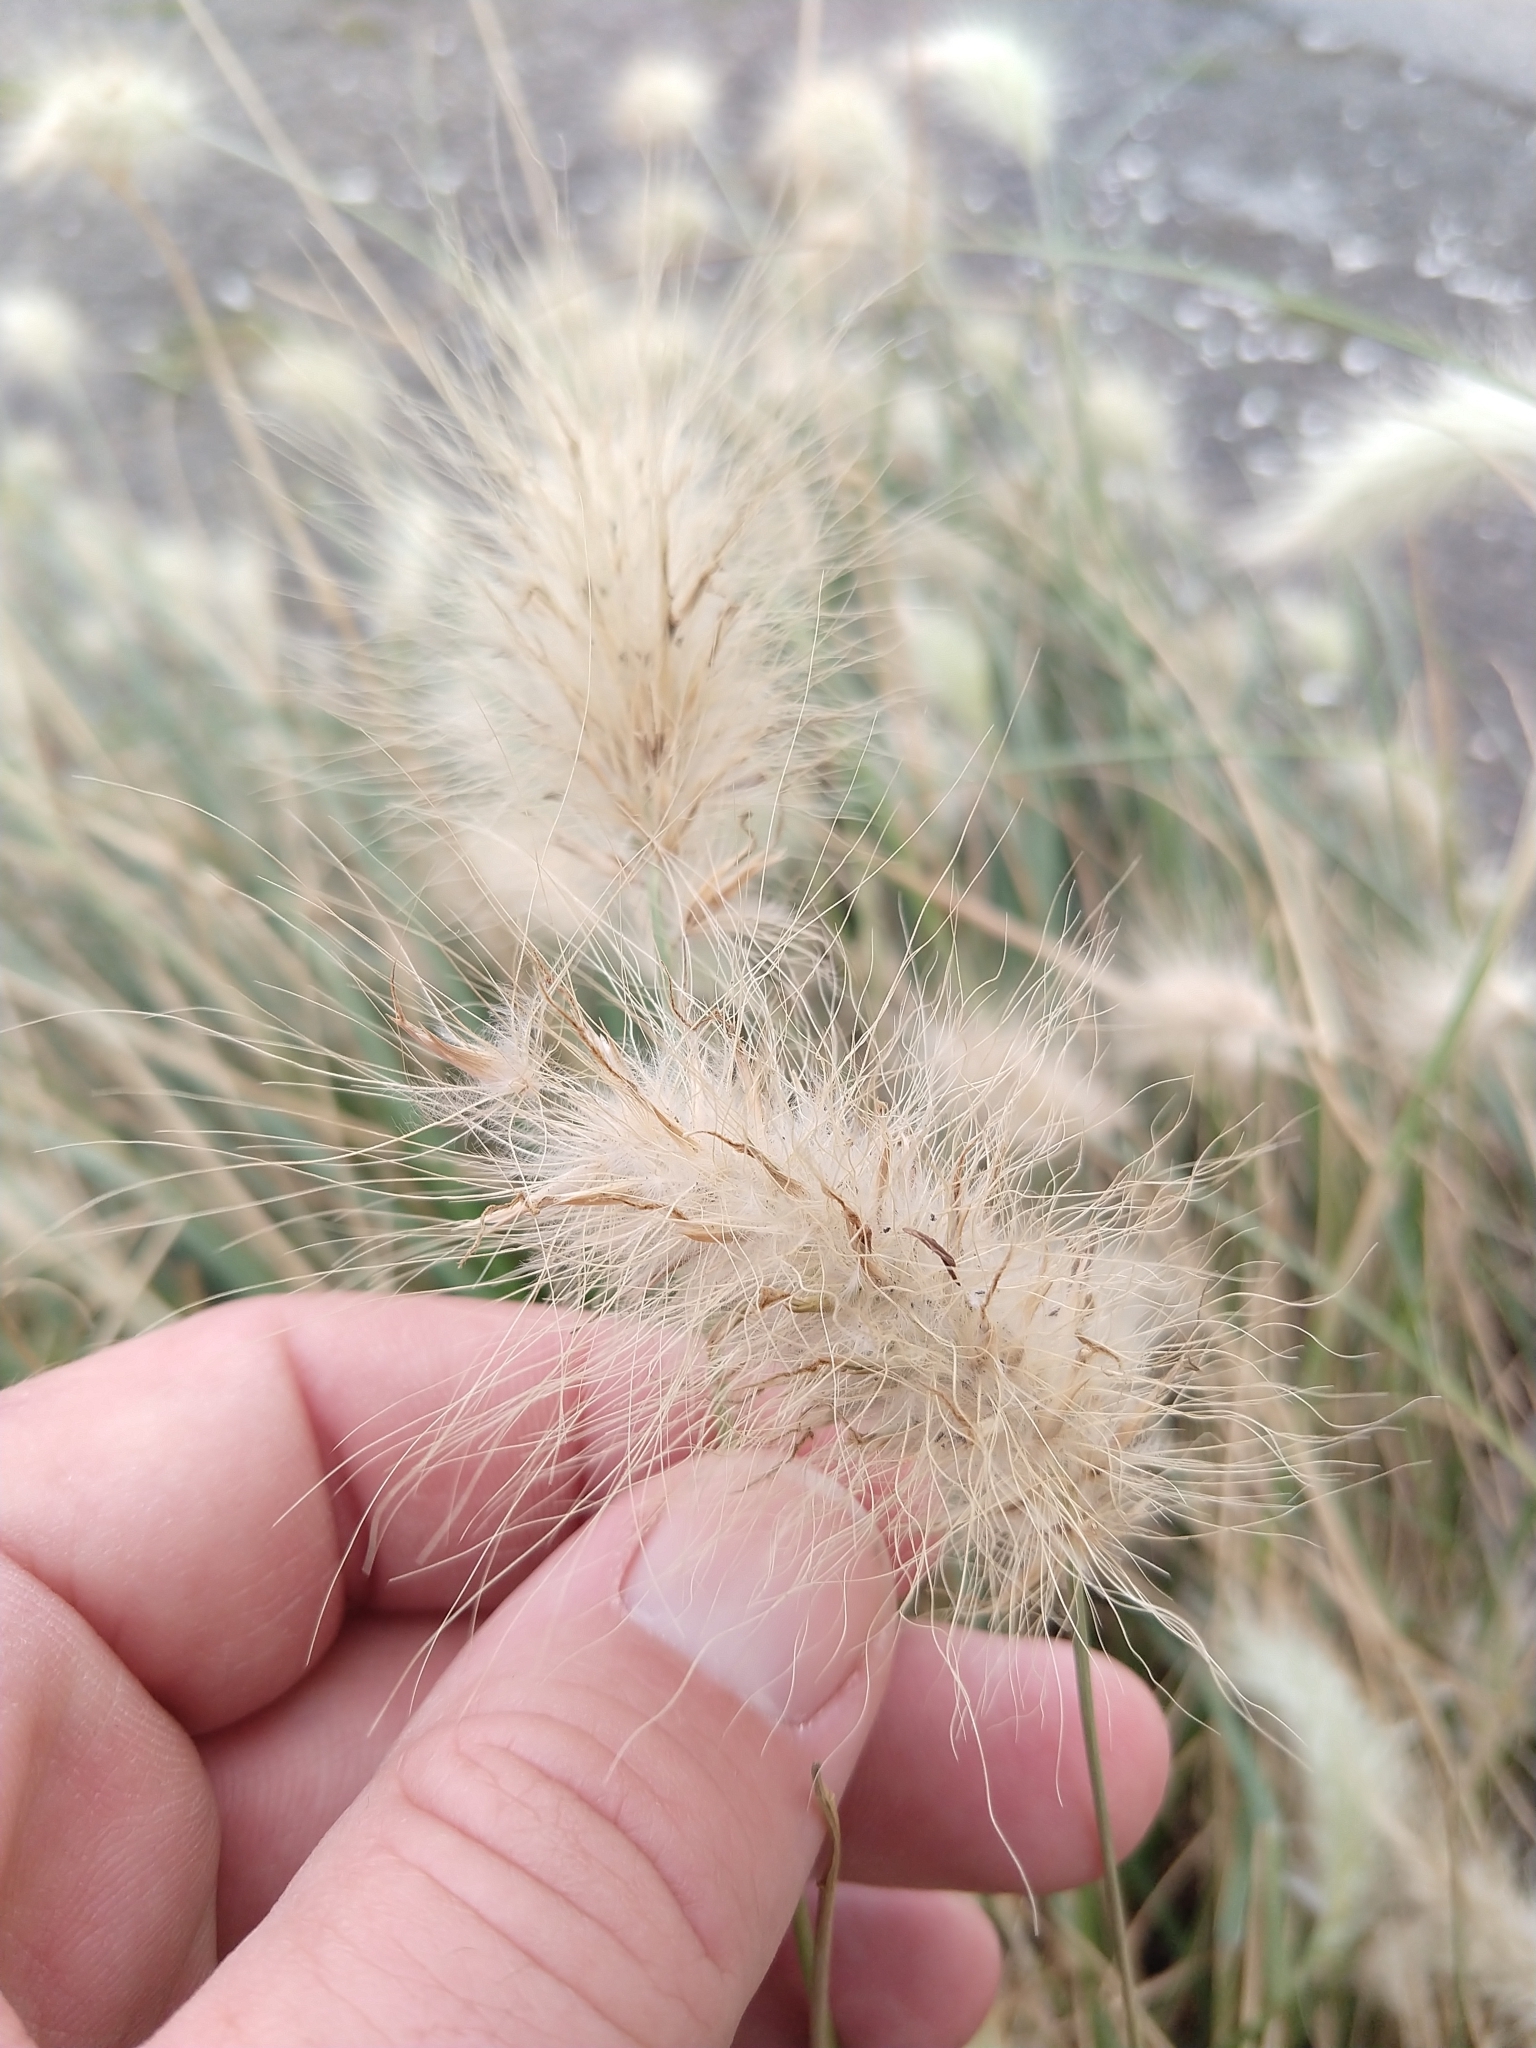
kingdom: Plantae
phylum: Tracheophyta
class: Liliopsida
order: Poales
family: Poaceae
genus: Cenchrus
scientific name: Cenchrus longisetus
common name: Feathertop
